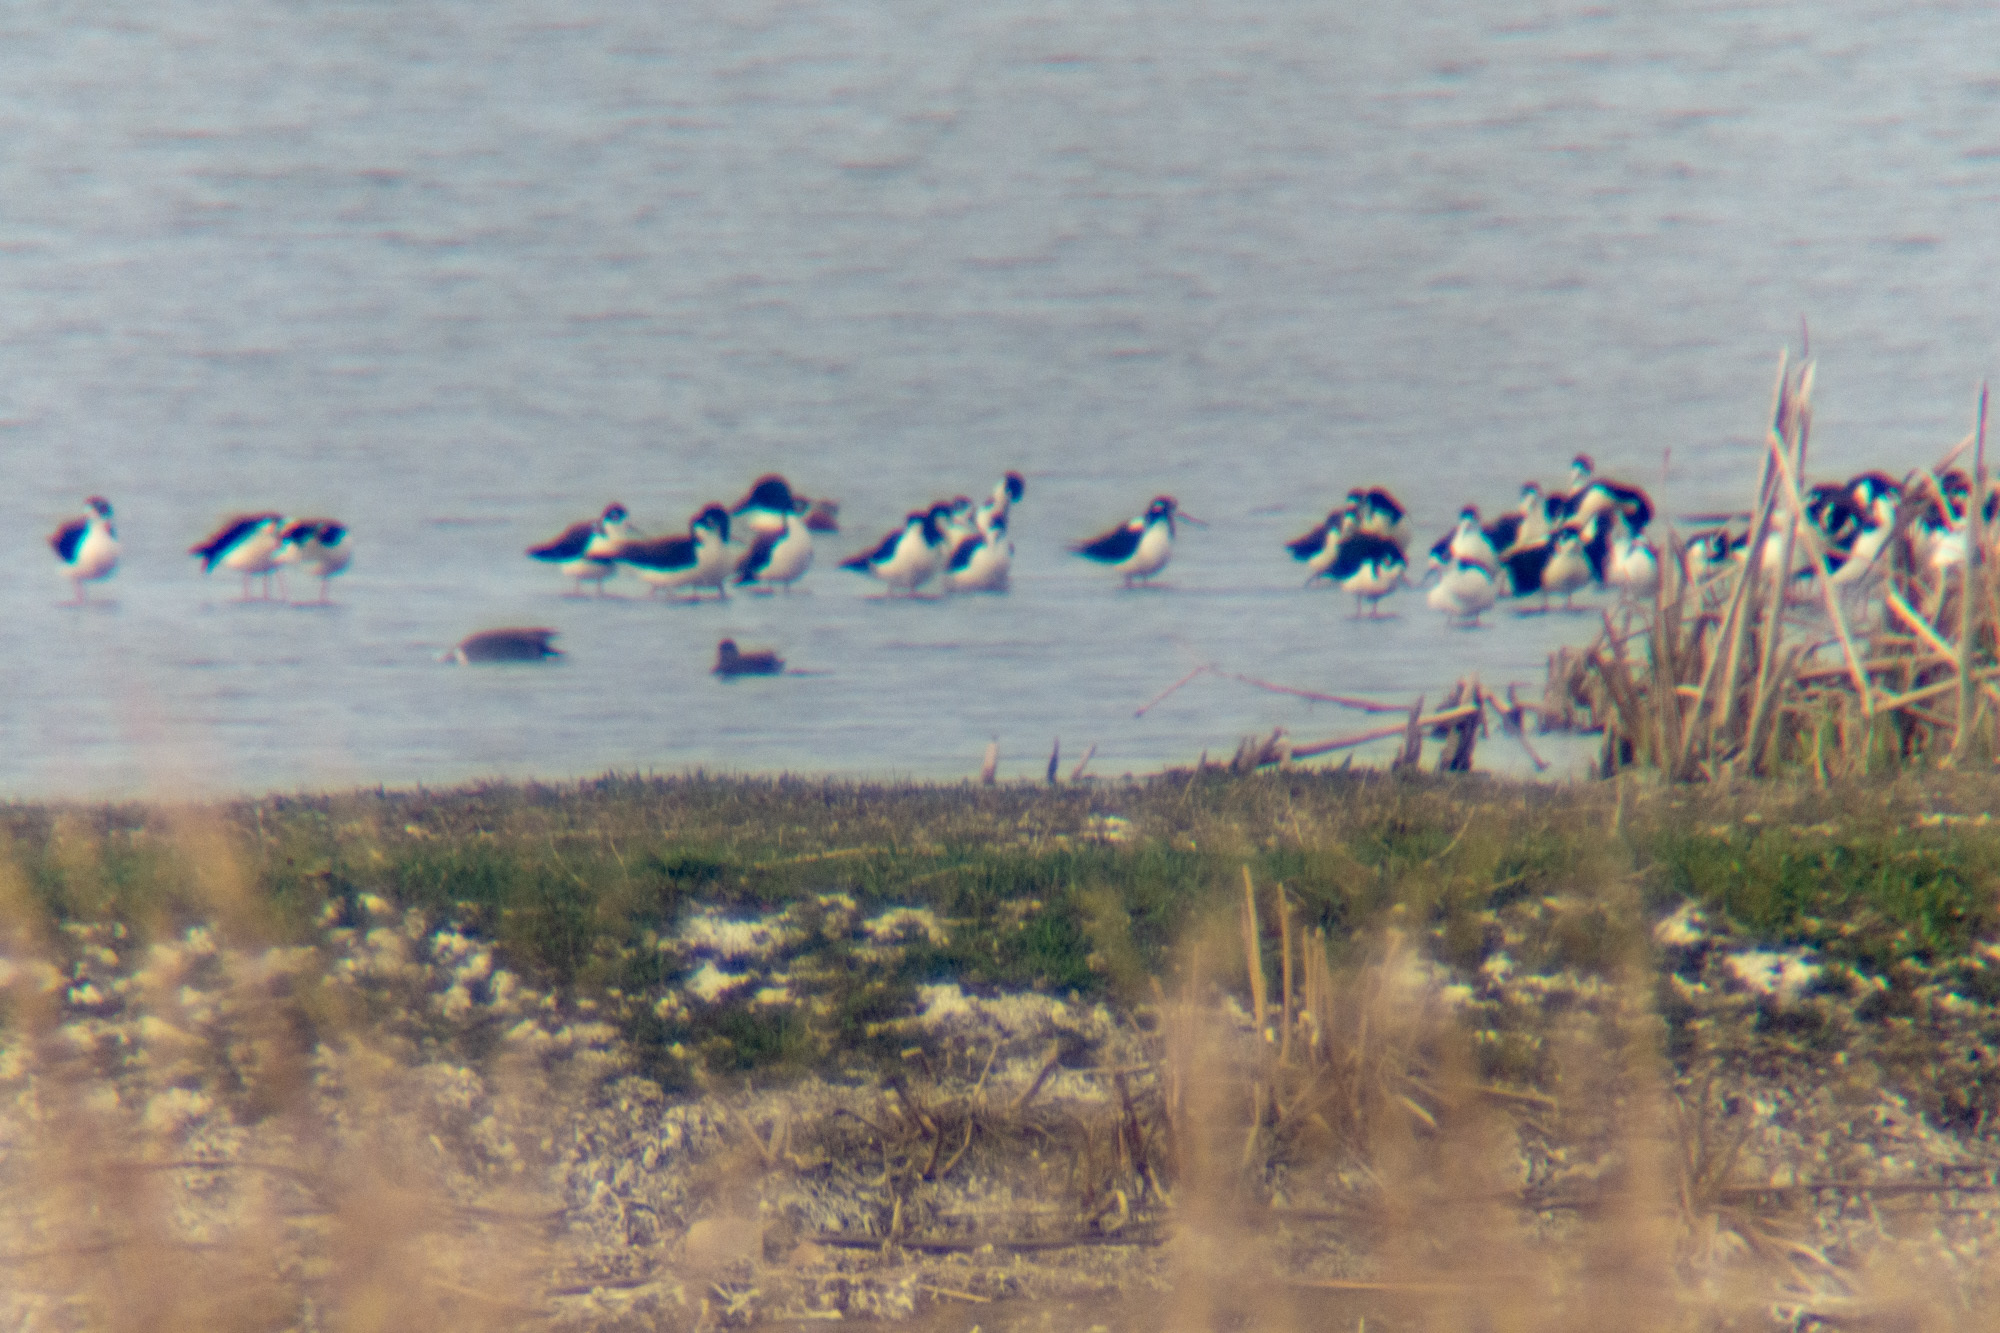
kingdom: Animalia
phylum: Chordata
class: Aves
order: Charadriiformes
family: Recurvirostridae
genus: Himantopus
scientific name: Himantopus mexicanus
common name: Black-necked stilt
